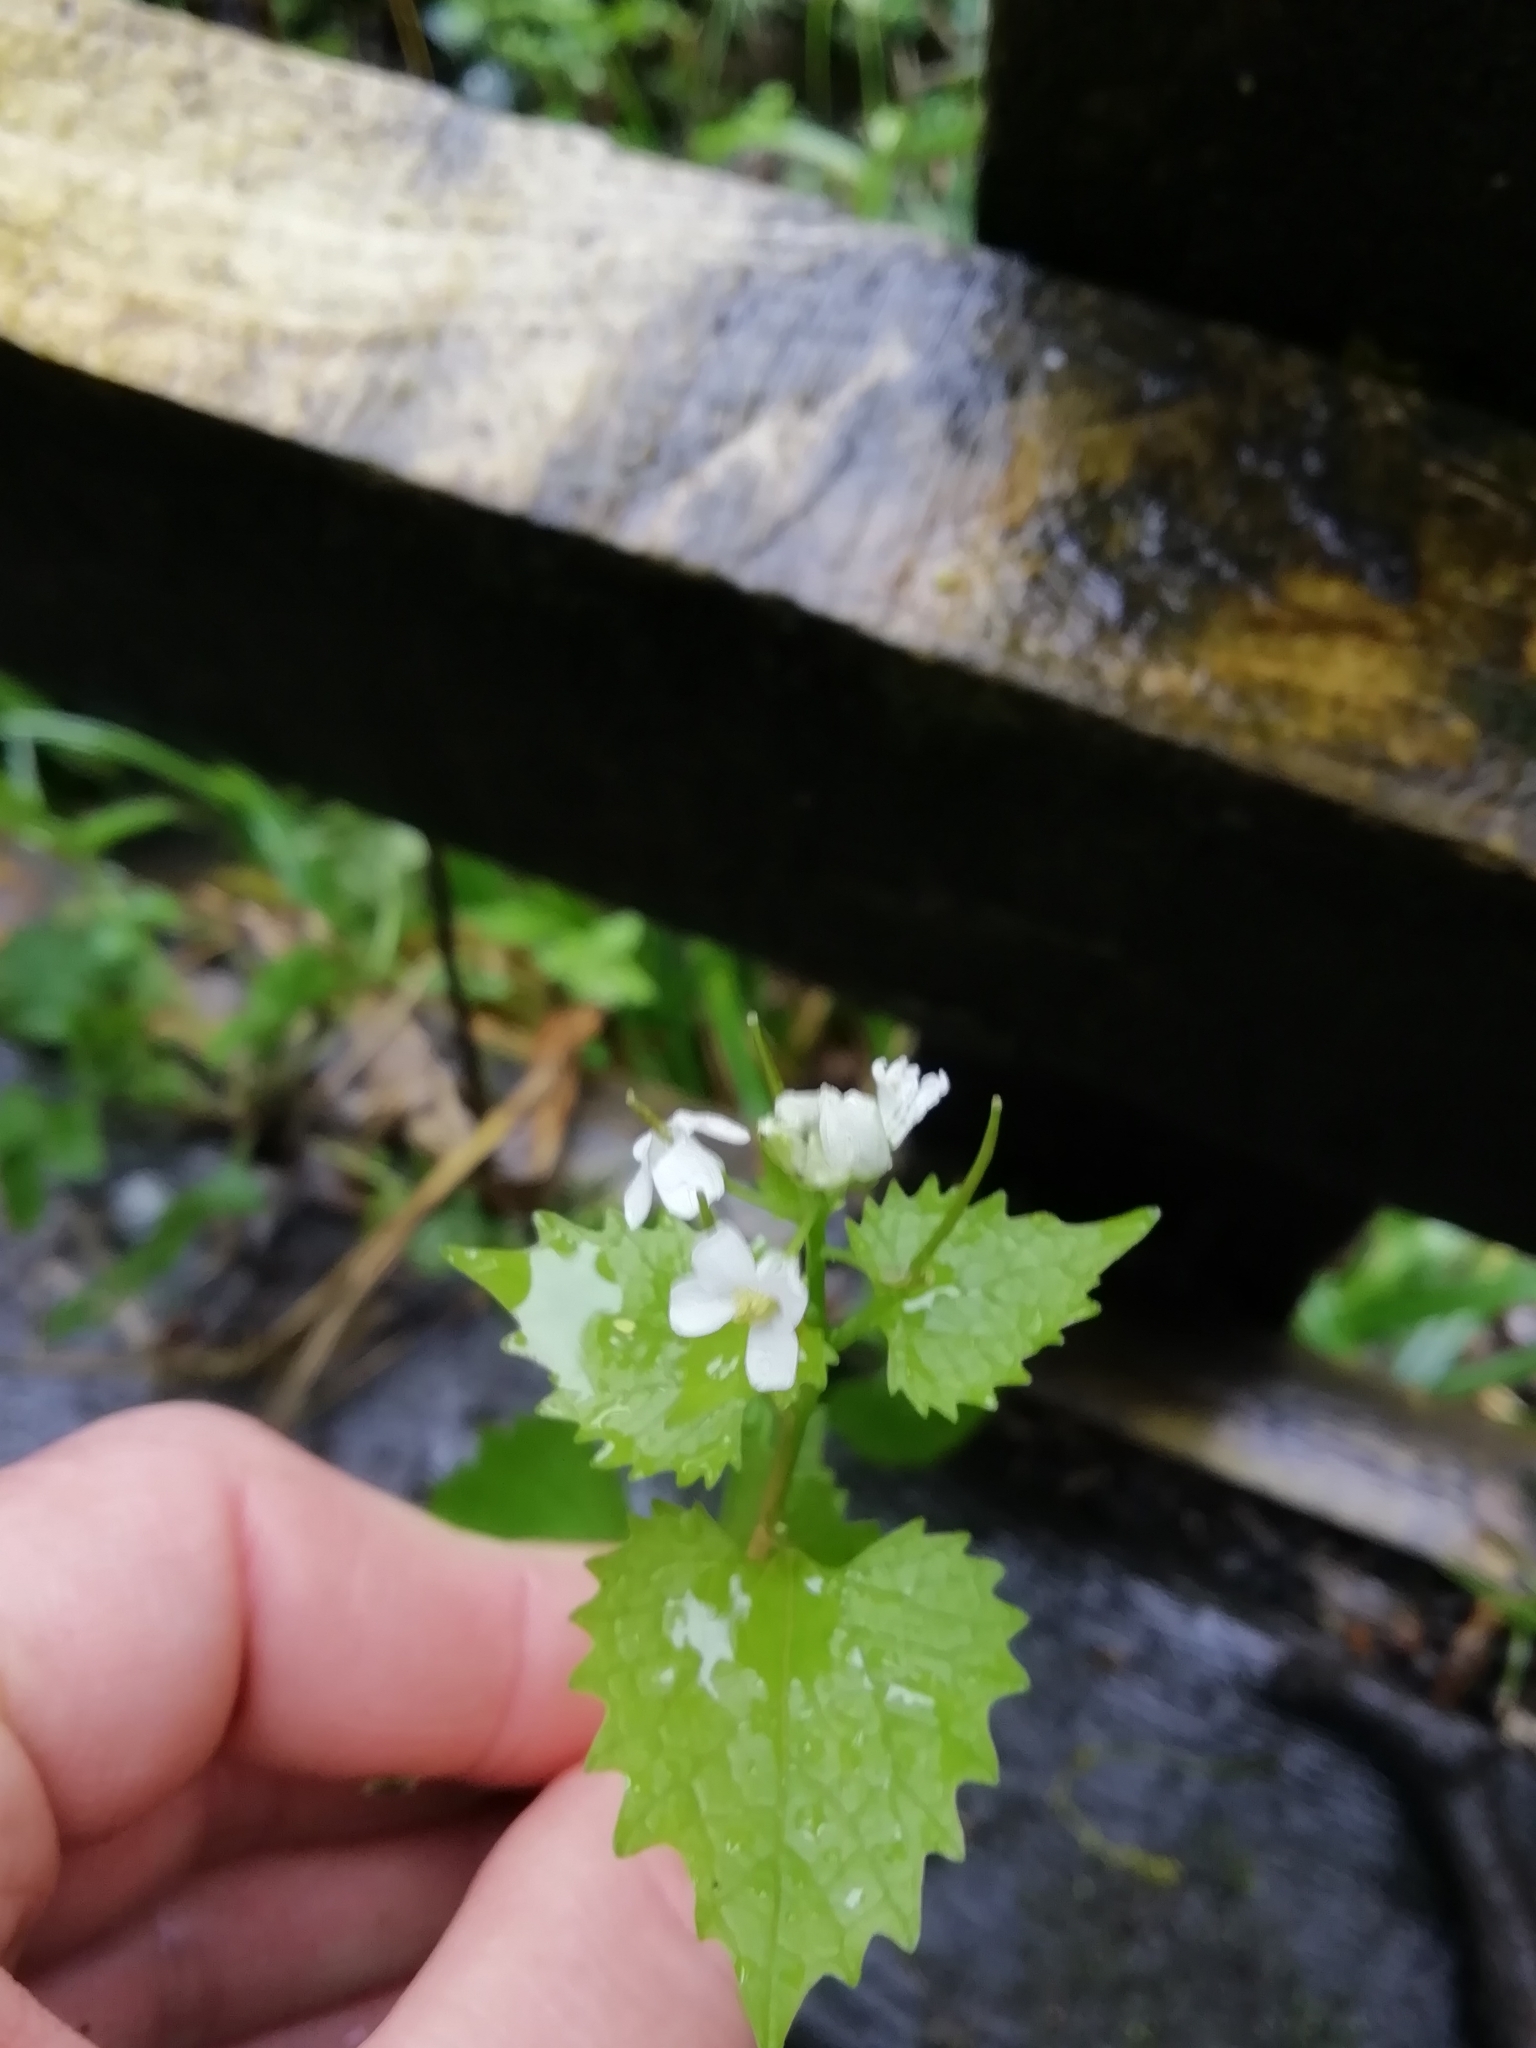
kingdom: Plantae
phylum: Tracheophyta
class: Magnoliopsida
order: Brassicales
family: Brassicaceae
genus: Alliaria
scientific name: Alliaria petiolata
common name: Garlic mustard
